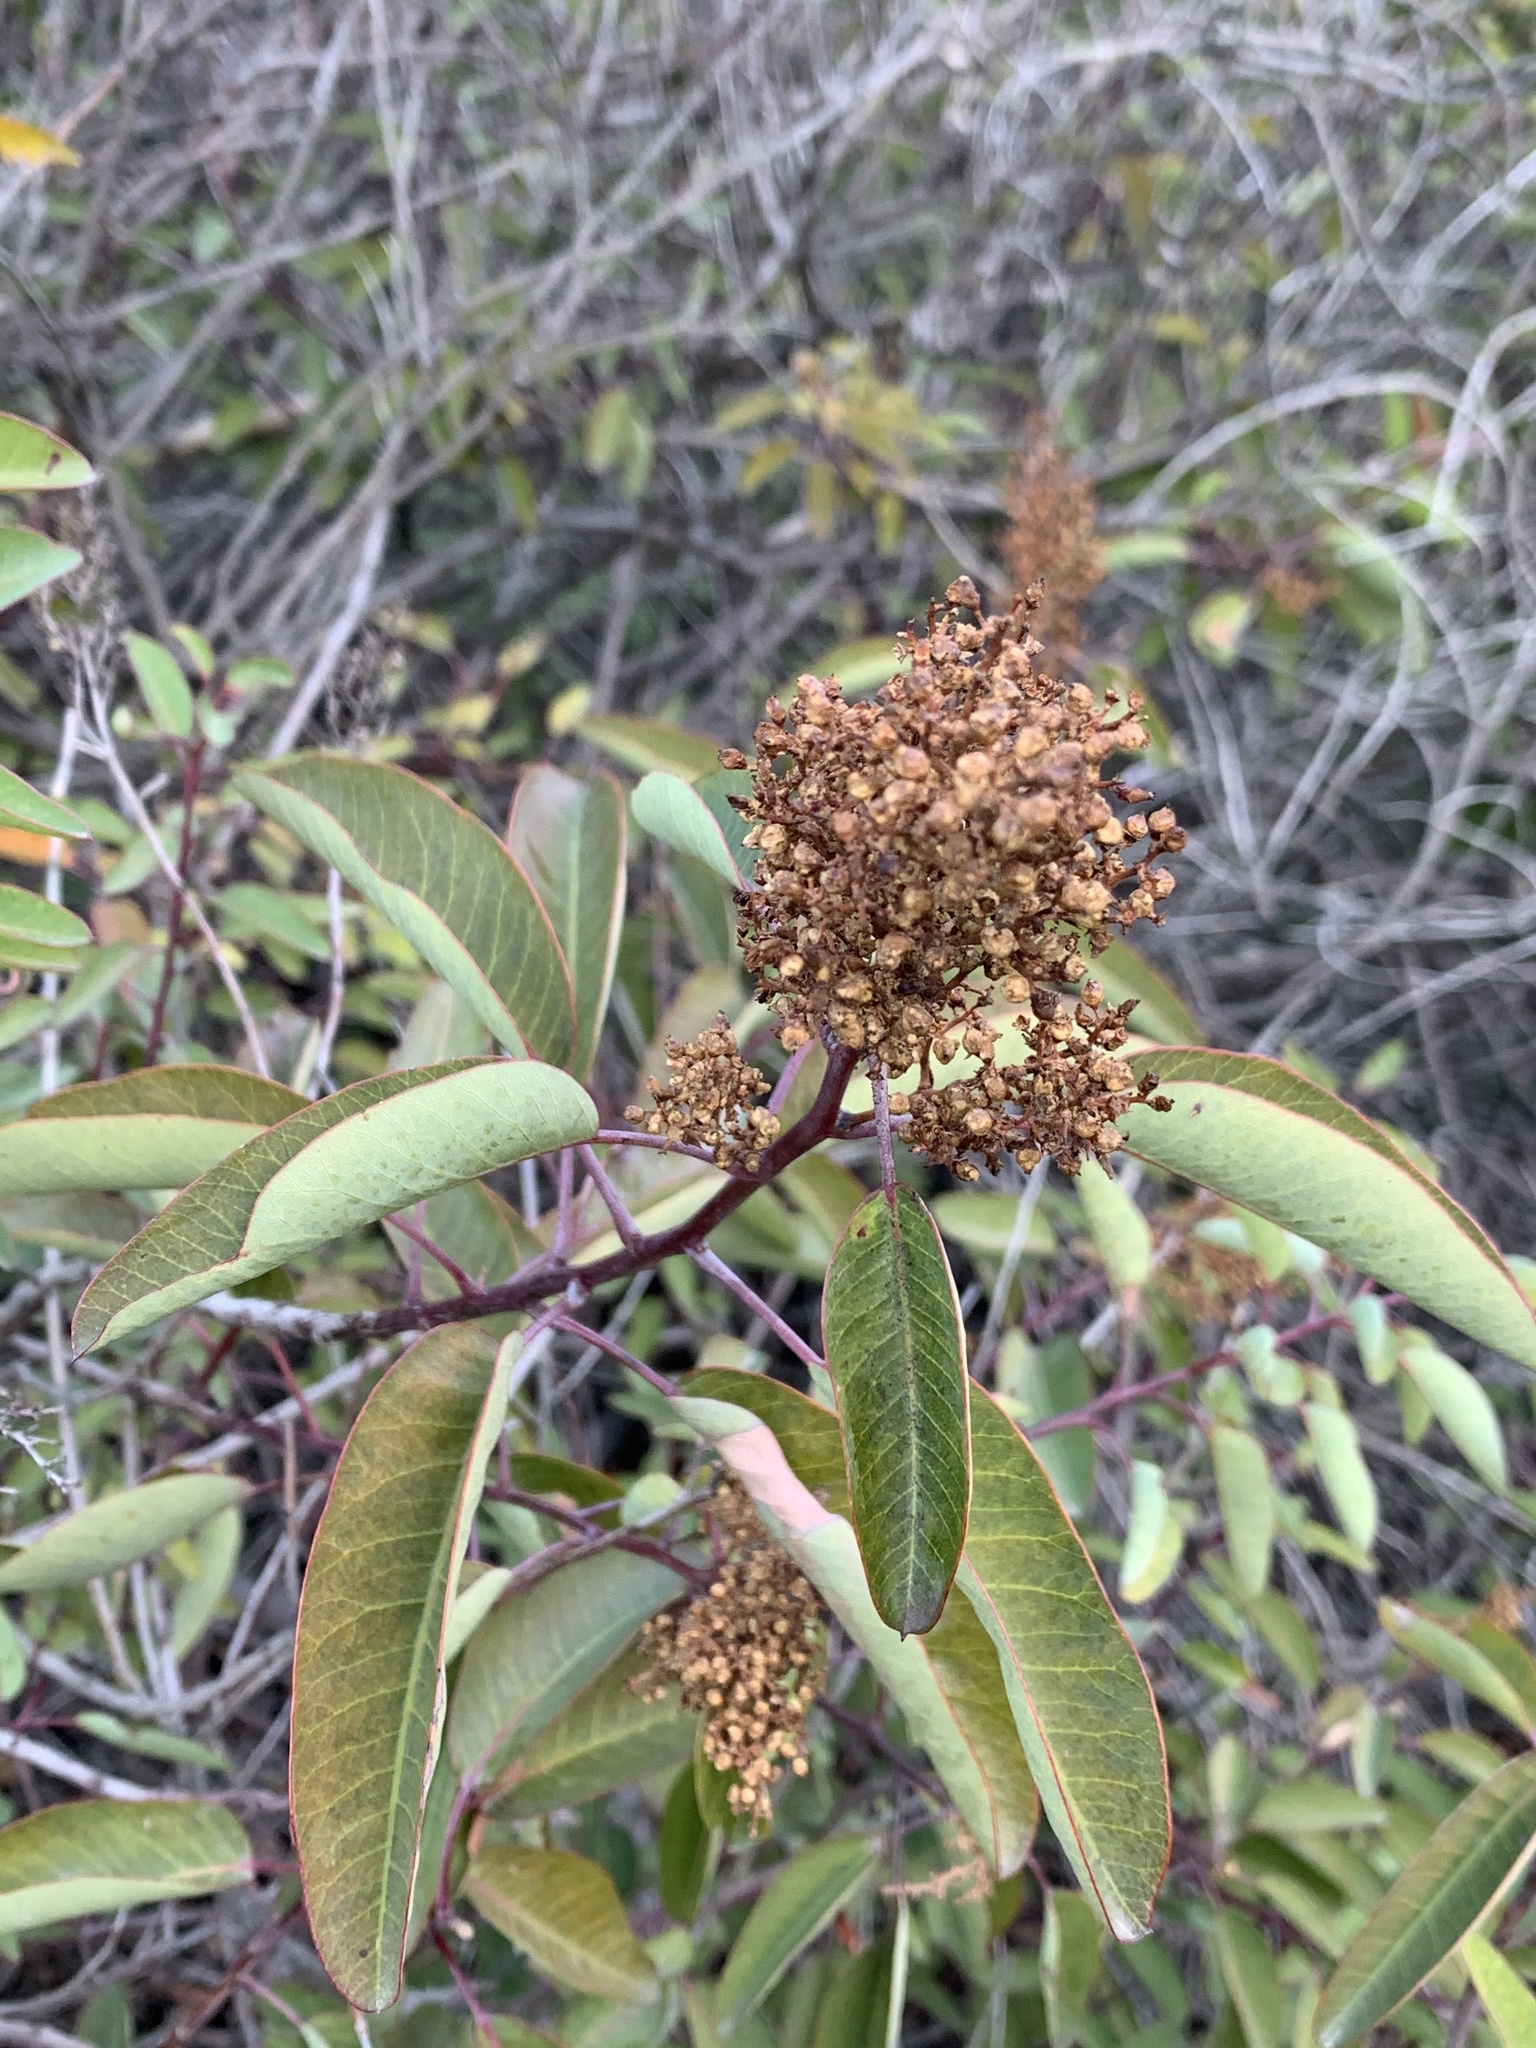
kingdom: Plantae
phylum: Tracheophyta
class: Magnoliopsida
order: Sapindales
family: Anacardiaceae
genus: Malosma
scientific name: Malosma laurina
